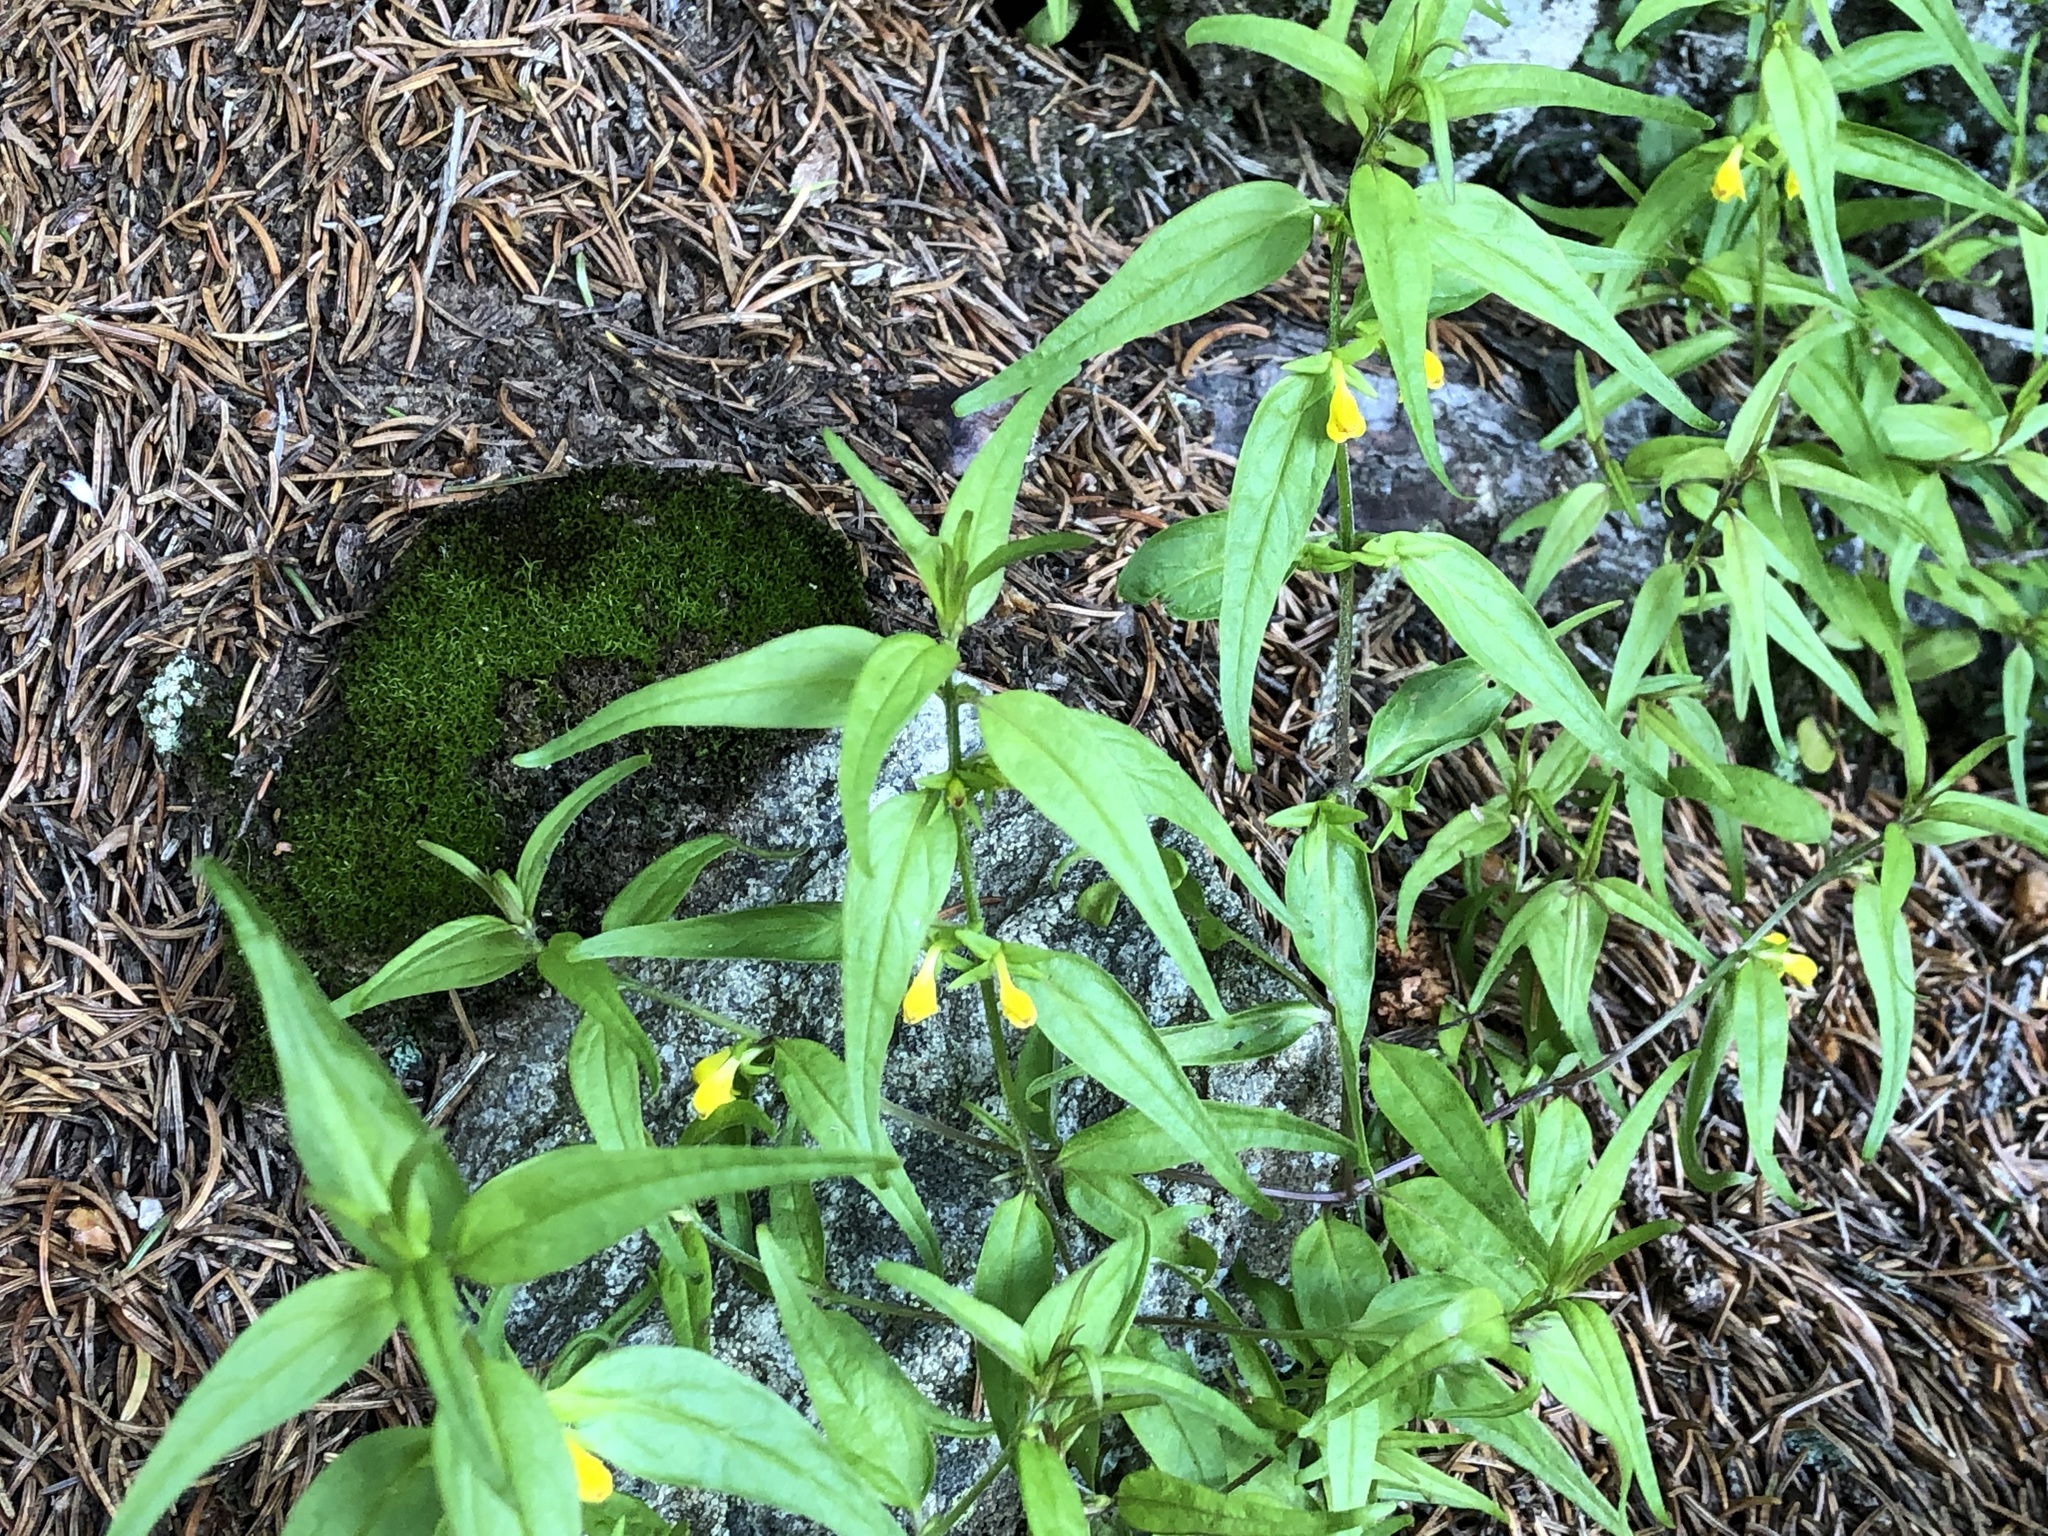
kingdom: Plantae
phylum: Tracheophyta
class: Magnoliopsida
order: Lamiales
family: Orobanchaceae
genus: Melampyrum
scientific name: Melampyrum sylvaticum
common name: Small cow-wheat
